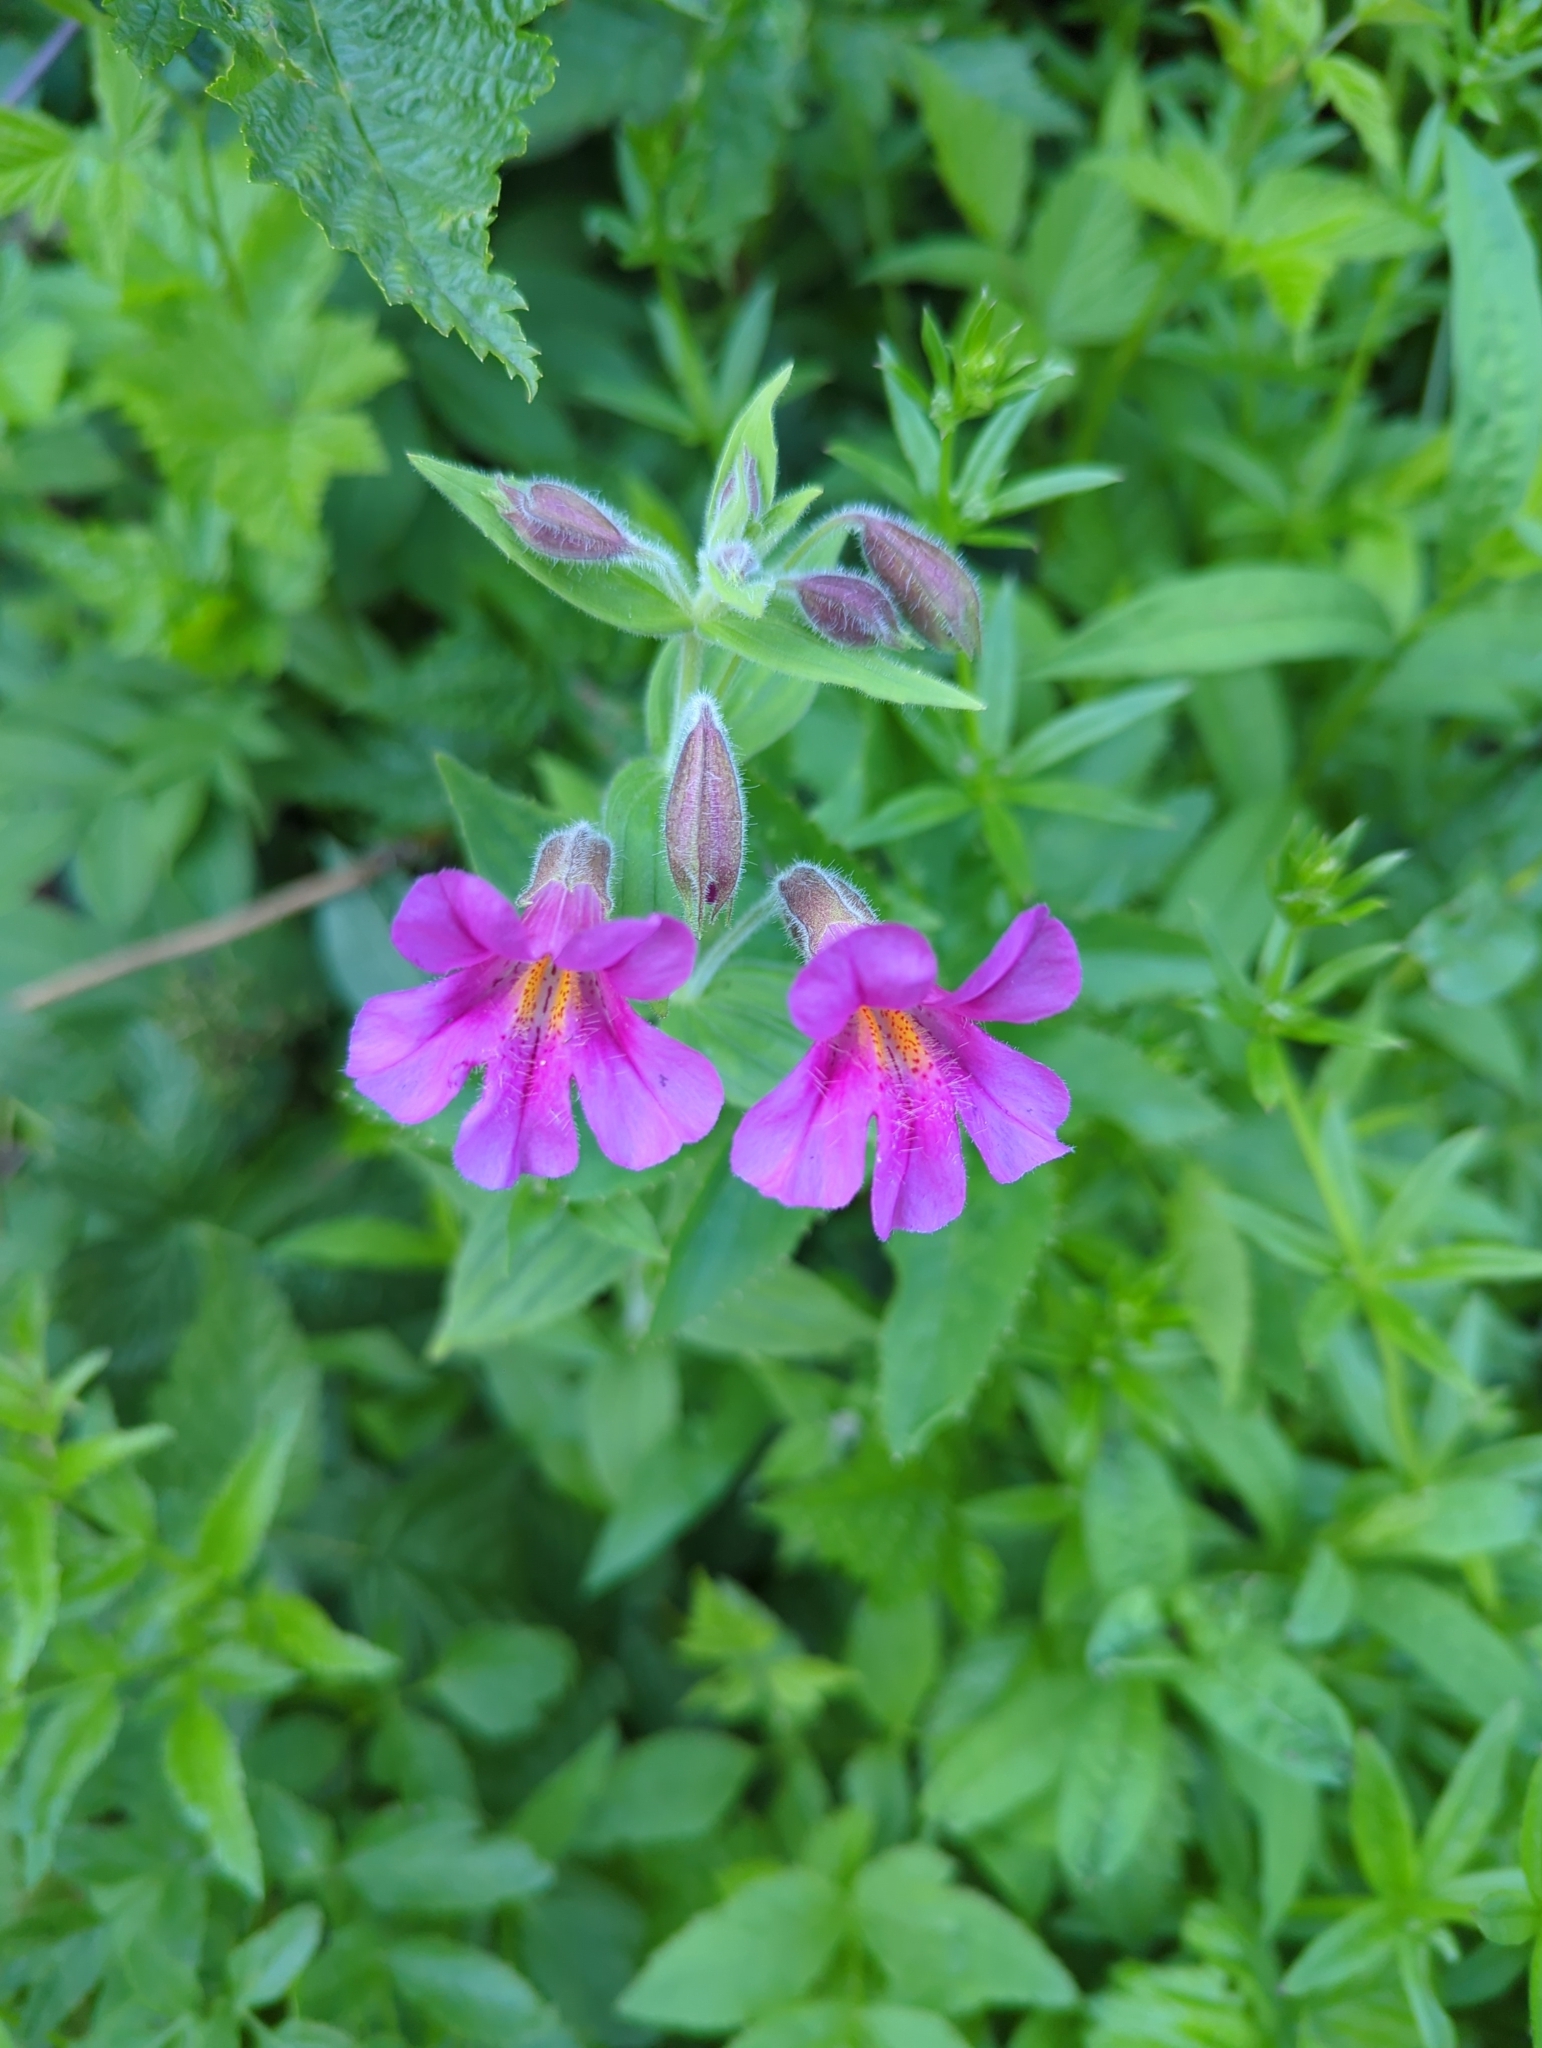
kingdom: Plantae
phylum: Tracheophyta
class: Magnoliopsida
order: Lamiales
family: Phrymaceae
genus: Erythranthe
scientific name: Erythranthe lewisii
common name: Lewis's monkey-flower
